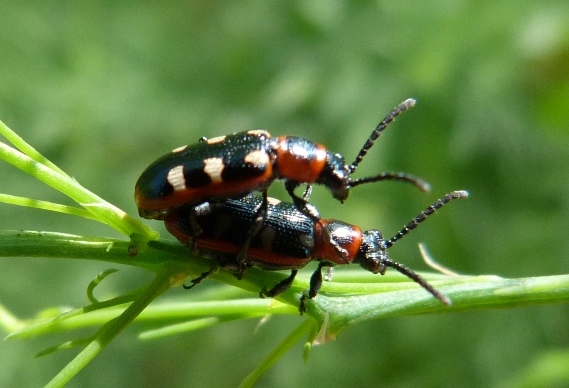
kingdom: Animalia
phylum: Arthropoda
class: Insecta
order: Coleoptera
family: Chrysomelidae
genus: Crioceris
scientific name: Crioceris asparagi
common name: Asparagus beetle
